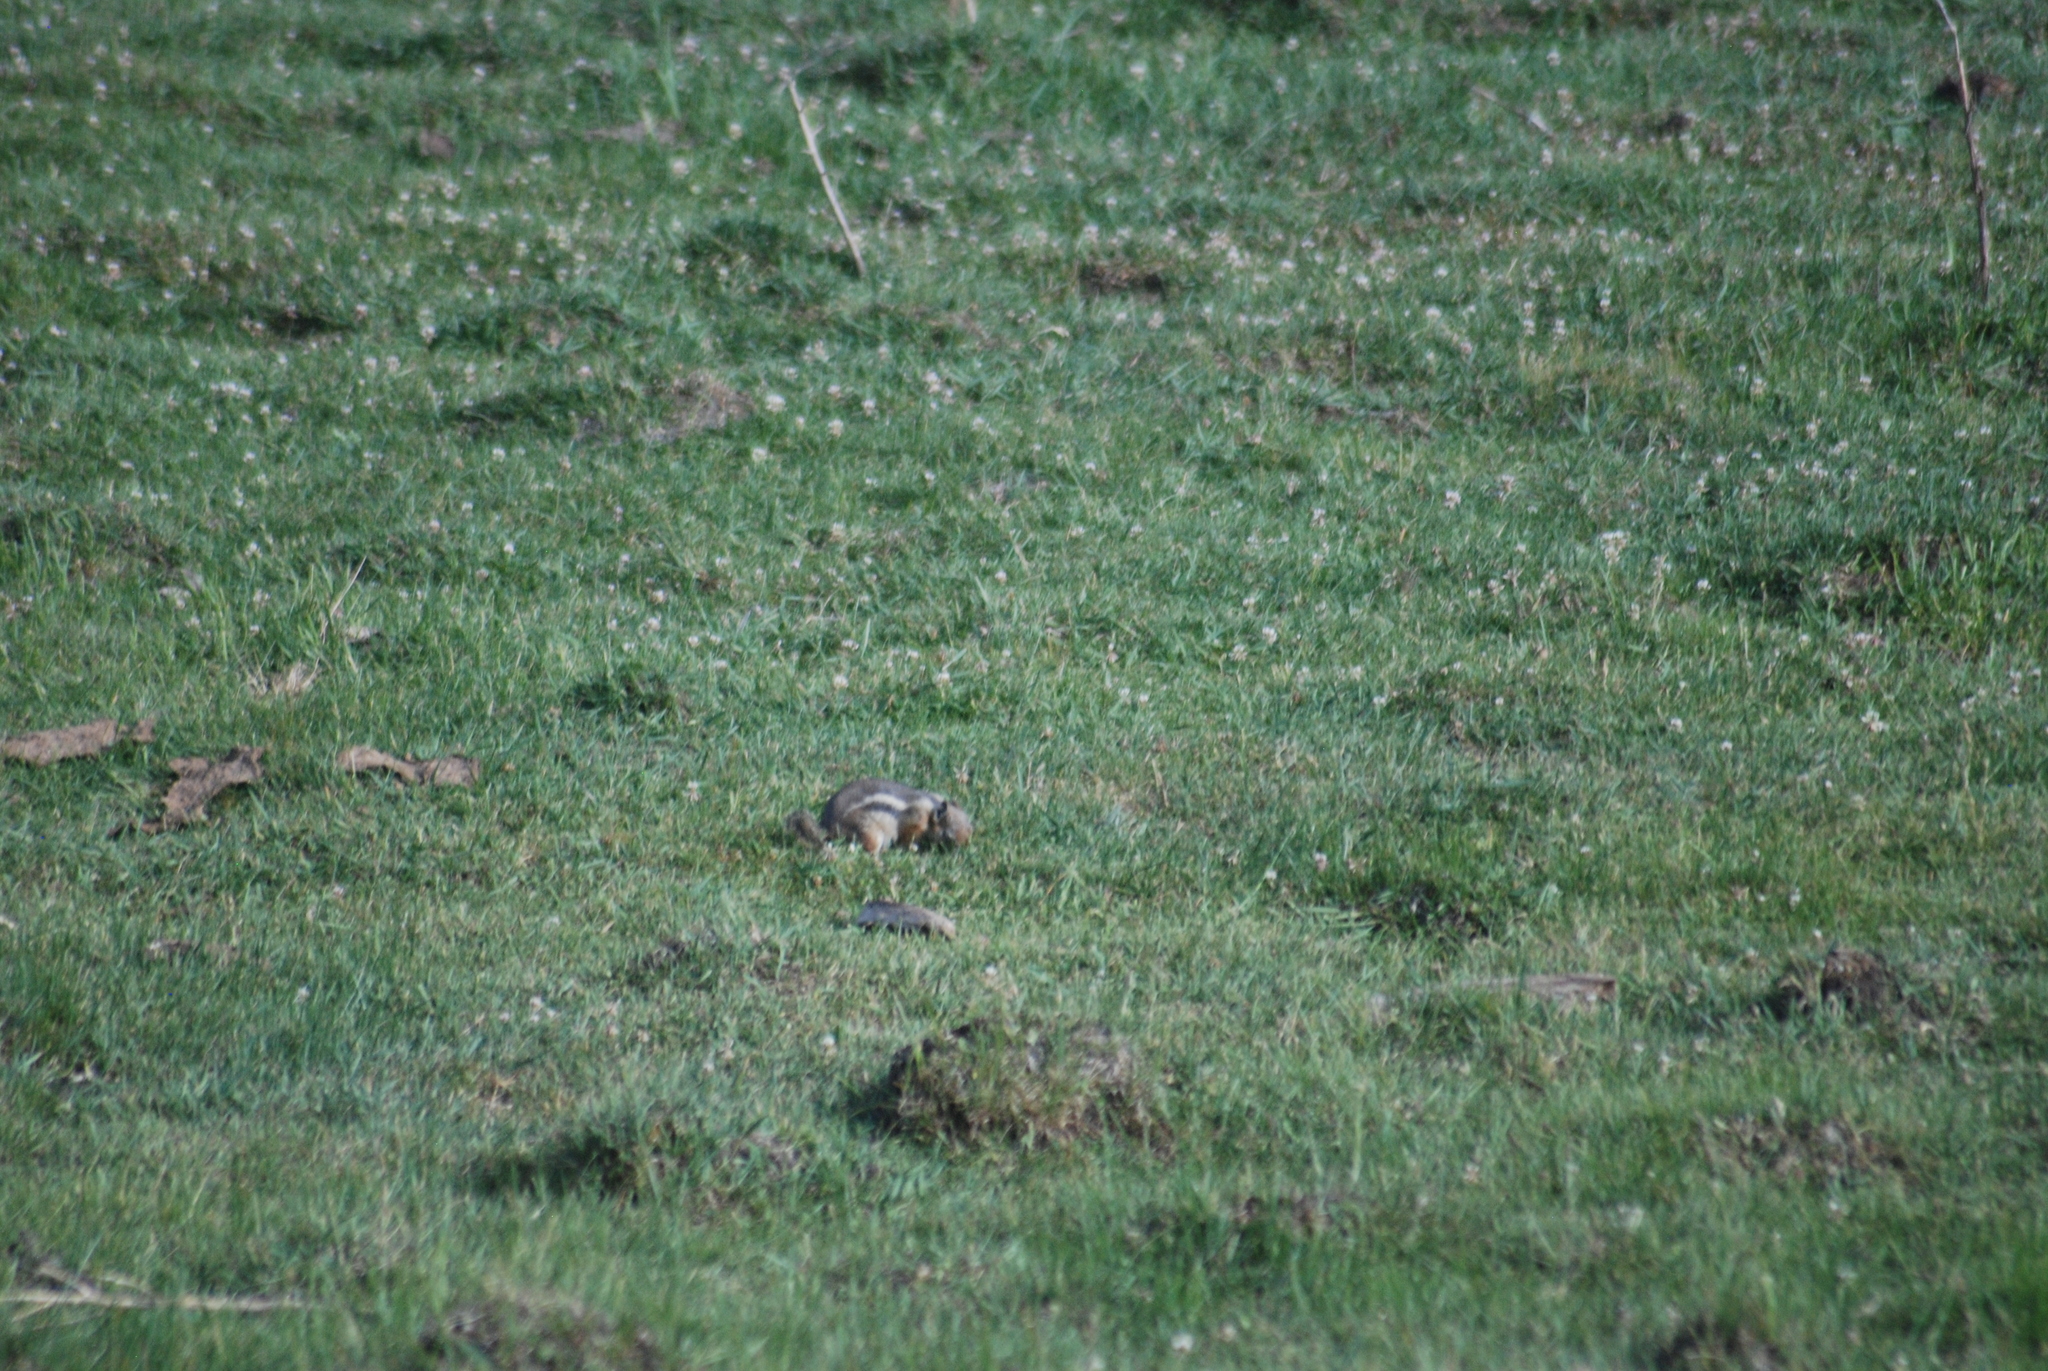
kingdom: Animalia
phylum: Chordata
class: Mammalia
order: Rodentia
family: Sciuridae
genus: Callospermophilus
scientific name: Callospermophilus lateralis
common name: Golden-mantled ground squirrel
